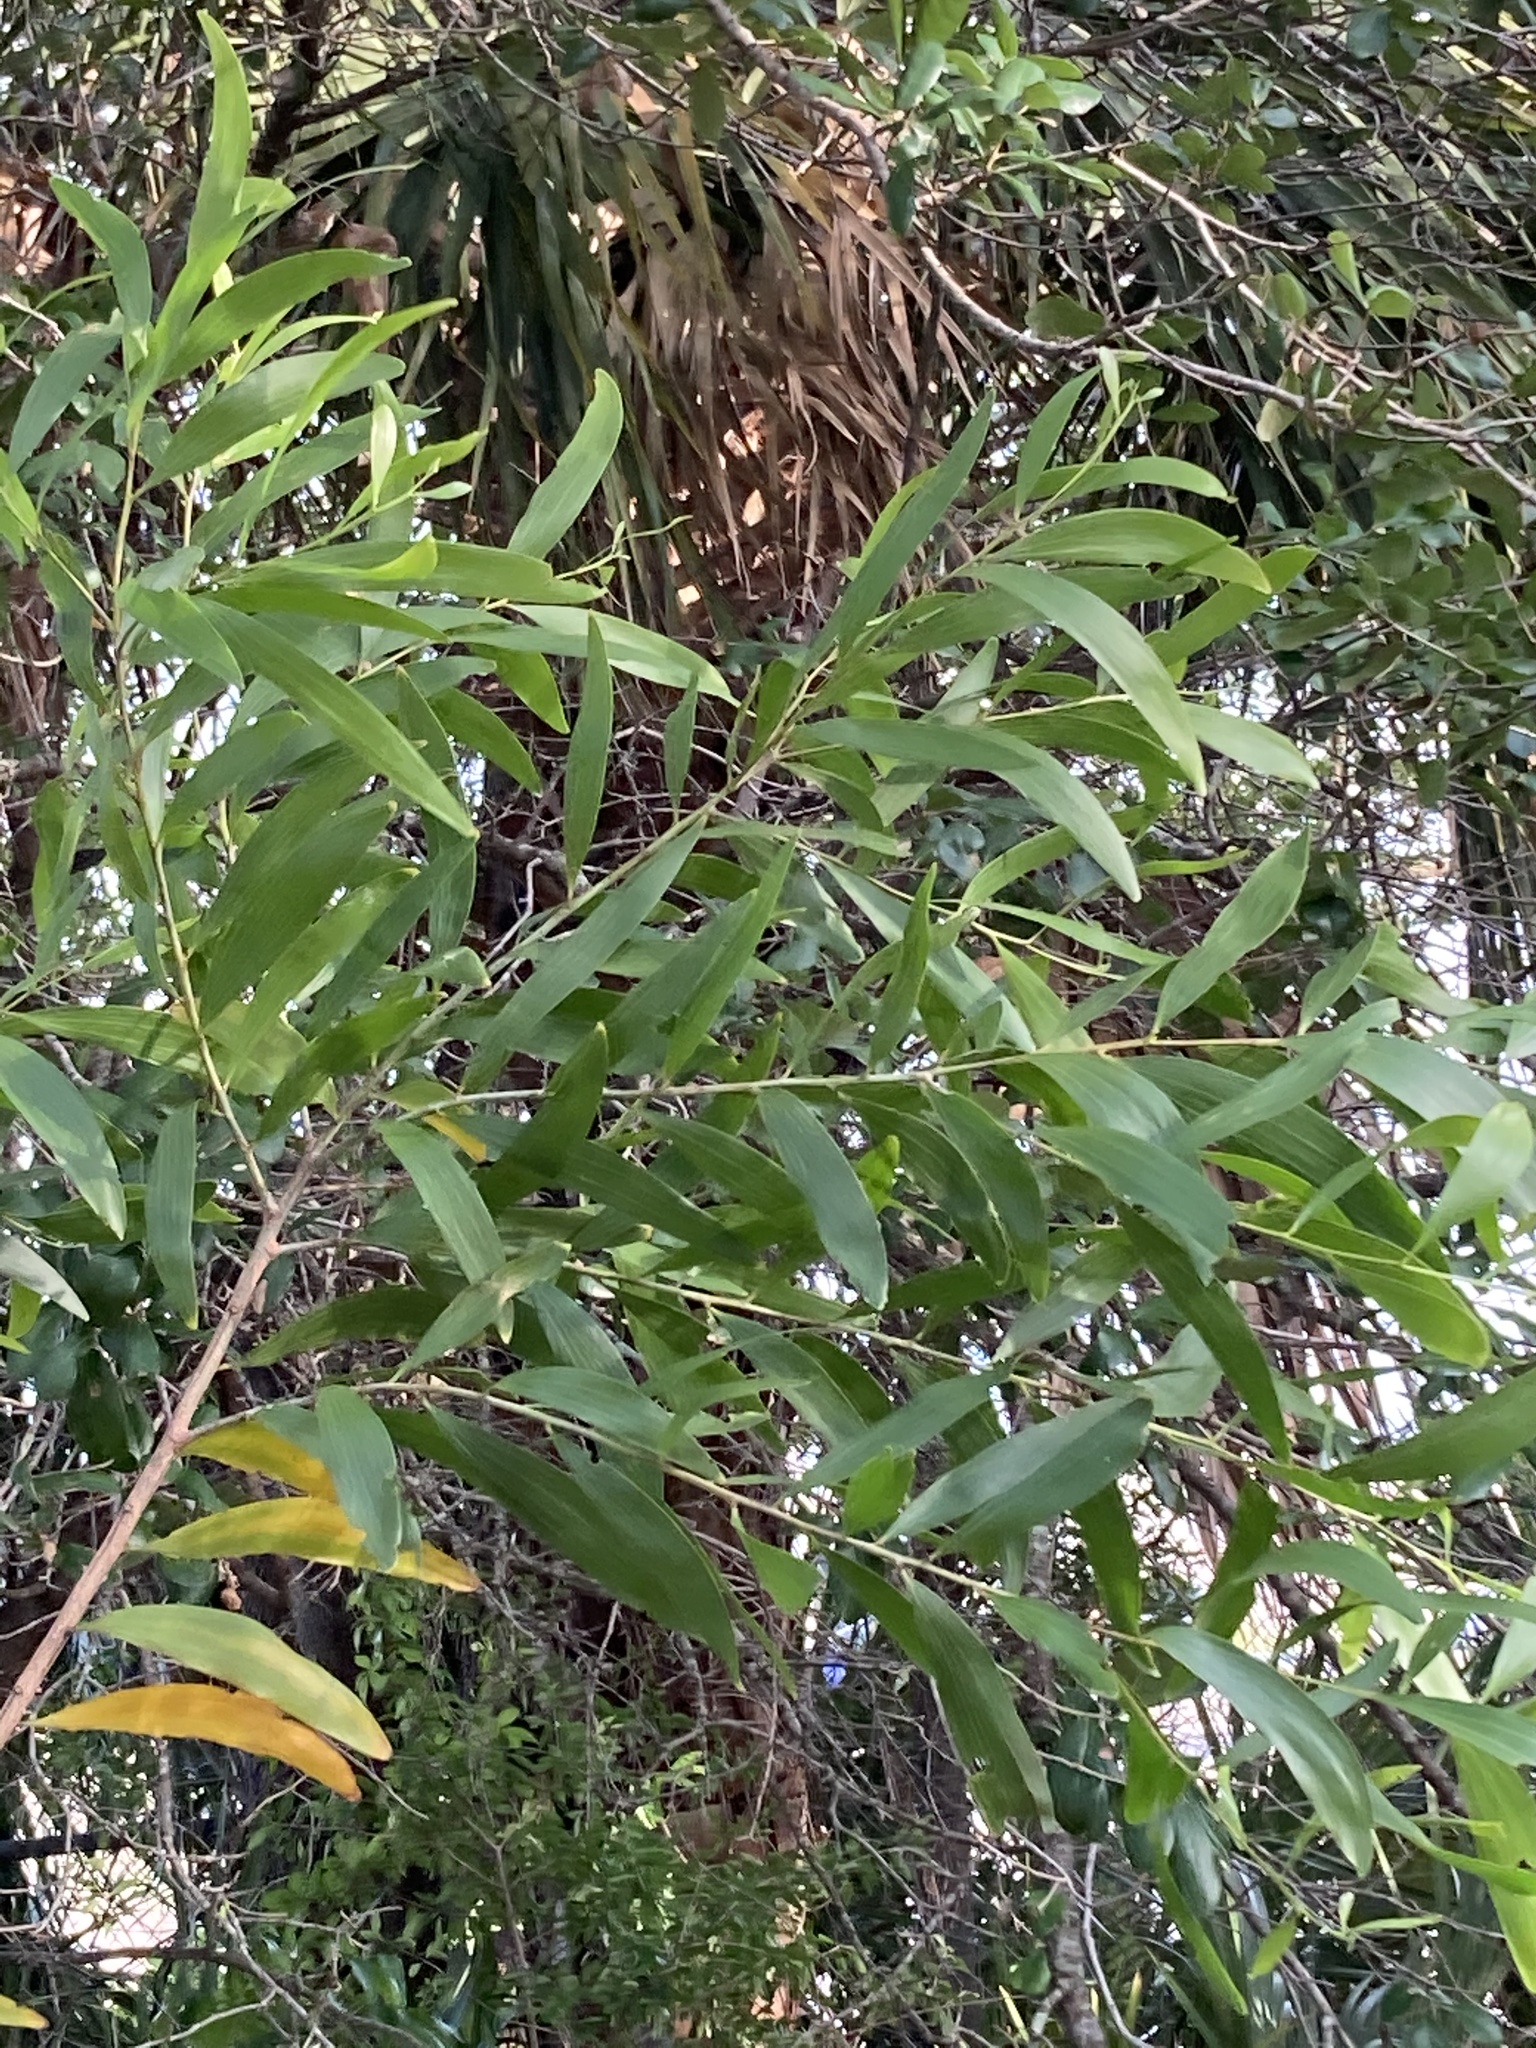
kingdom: Plantae
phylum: Tracheophyta
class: Magnoliopsida
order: Fabales
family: Fabaceae
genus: Acacia
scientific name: Acacia auriculiformis
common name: Earleaf acacia
